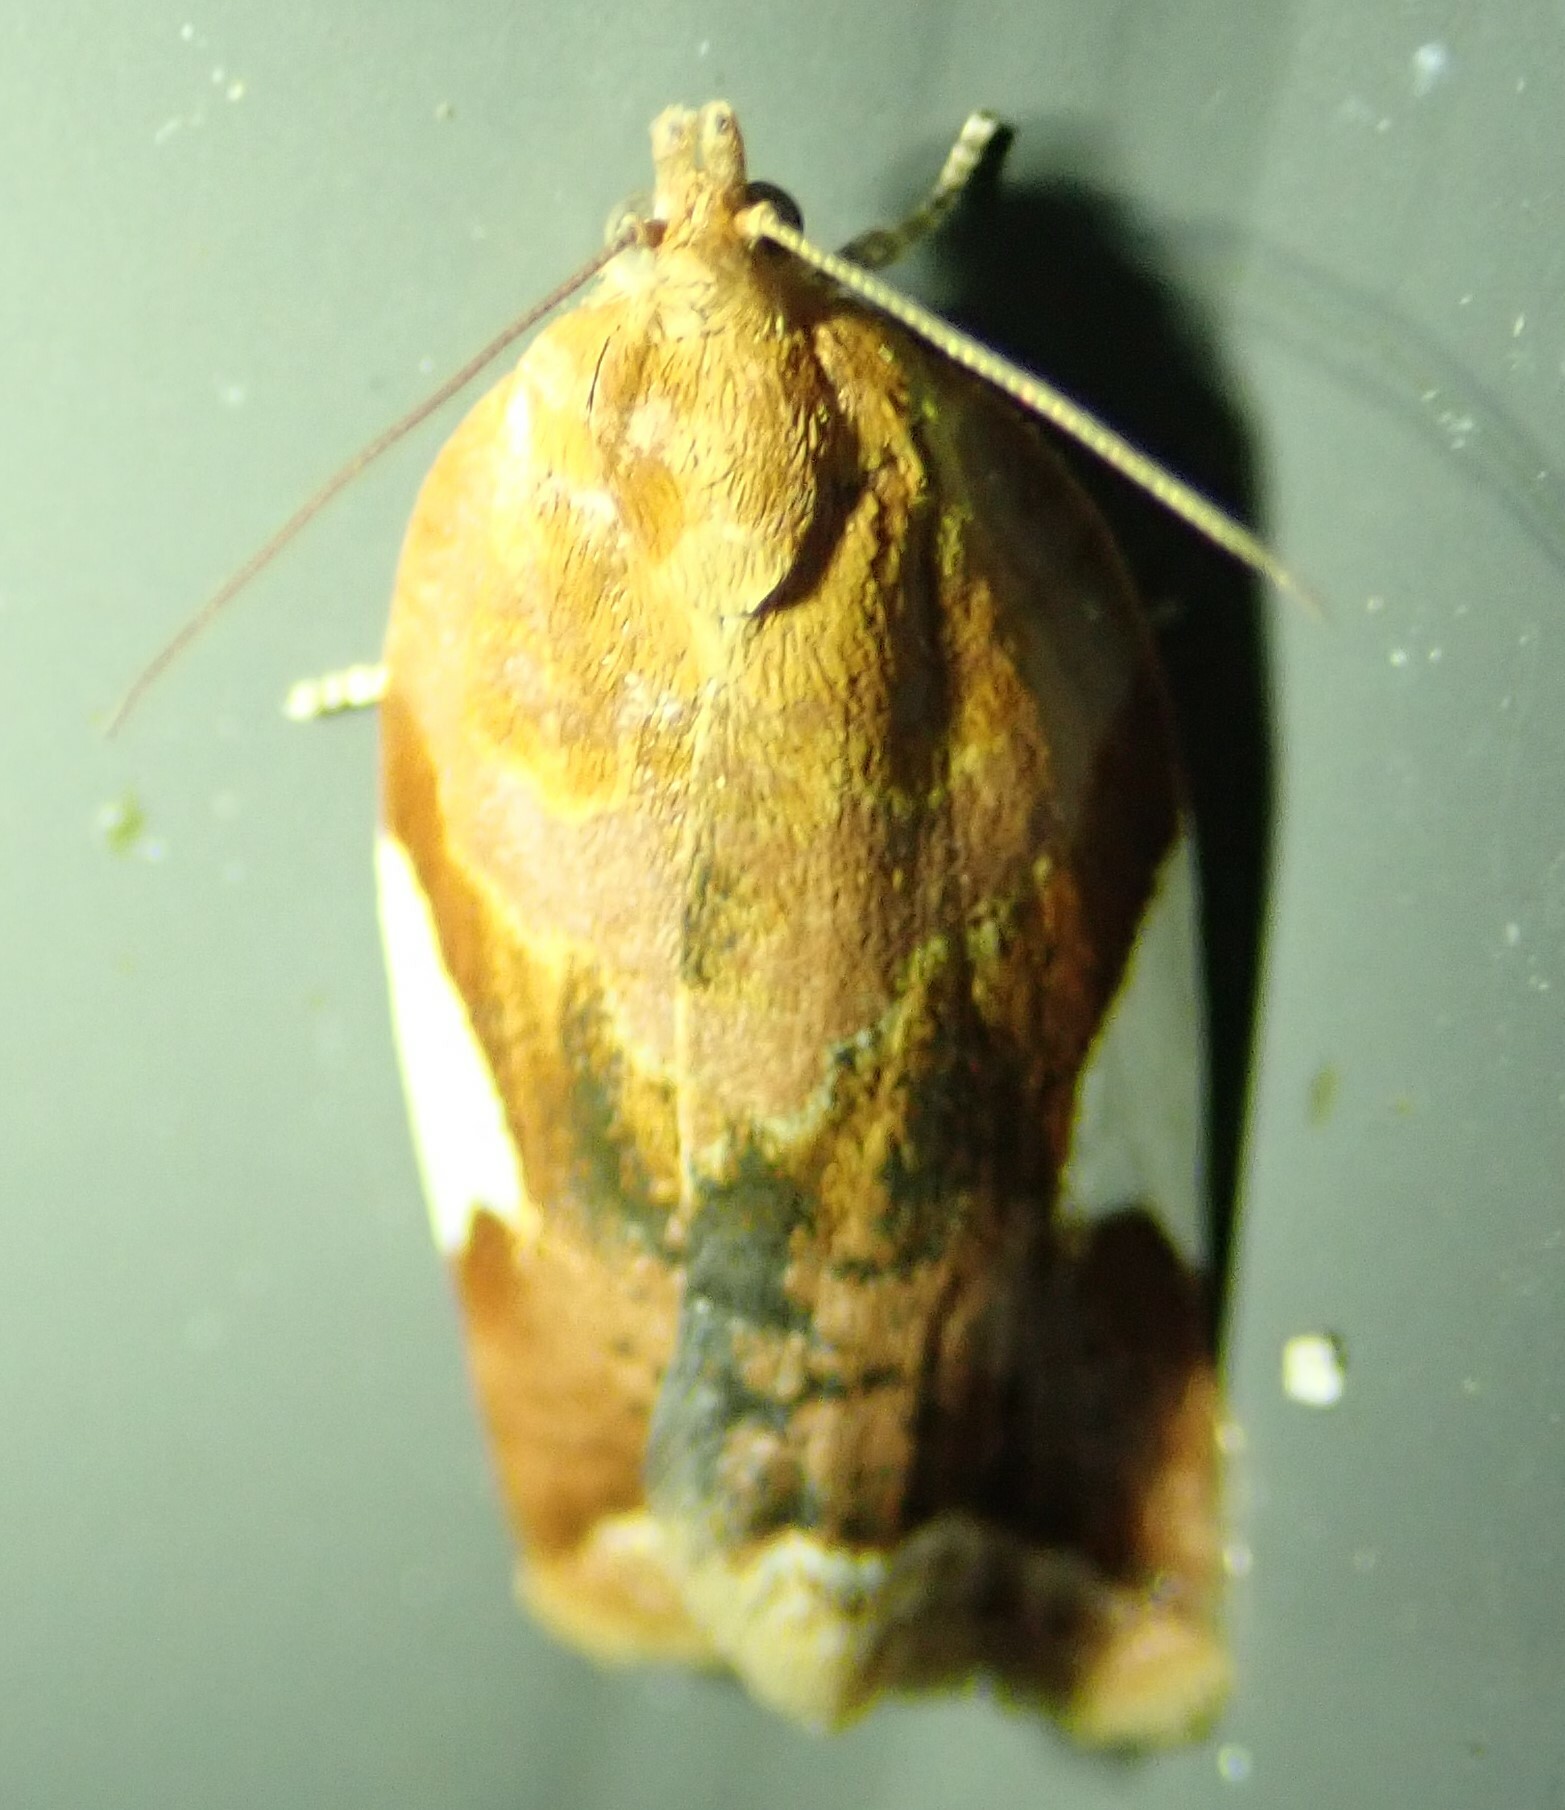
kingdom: Animalia
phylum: Arthropoda
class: Insecta
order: Lepidoptera
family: Tortricidae
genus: Clepsis
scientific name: Clepsis persicana
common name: White triangle tortrix
